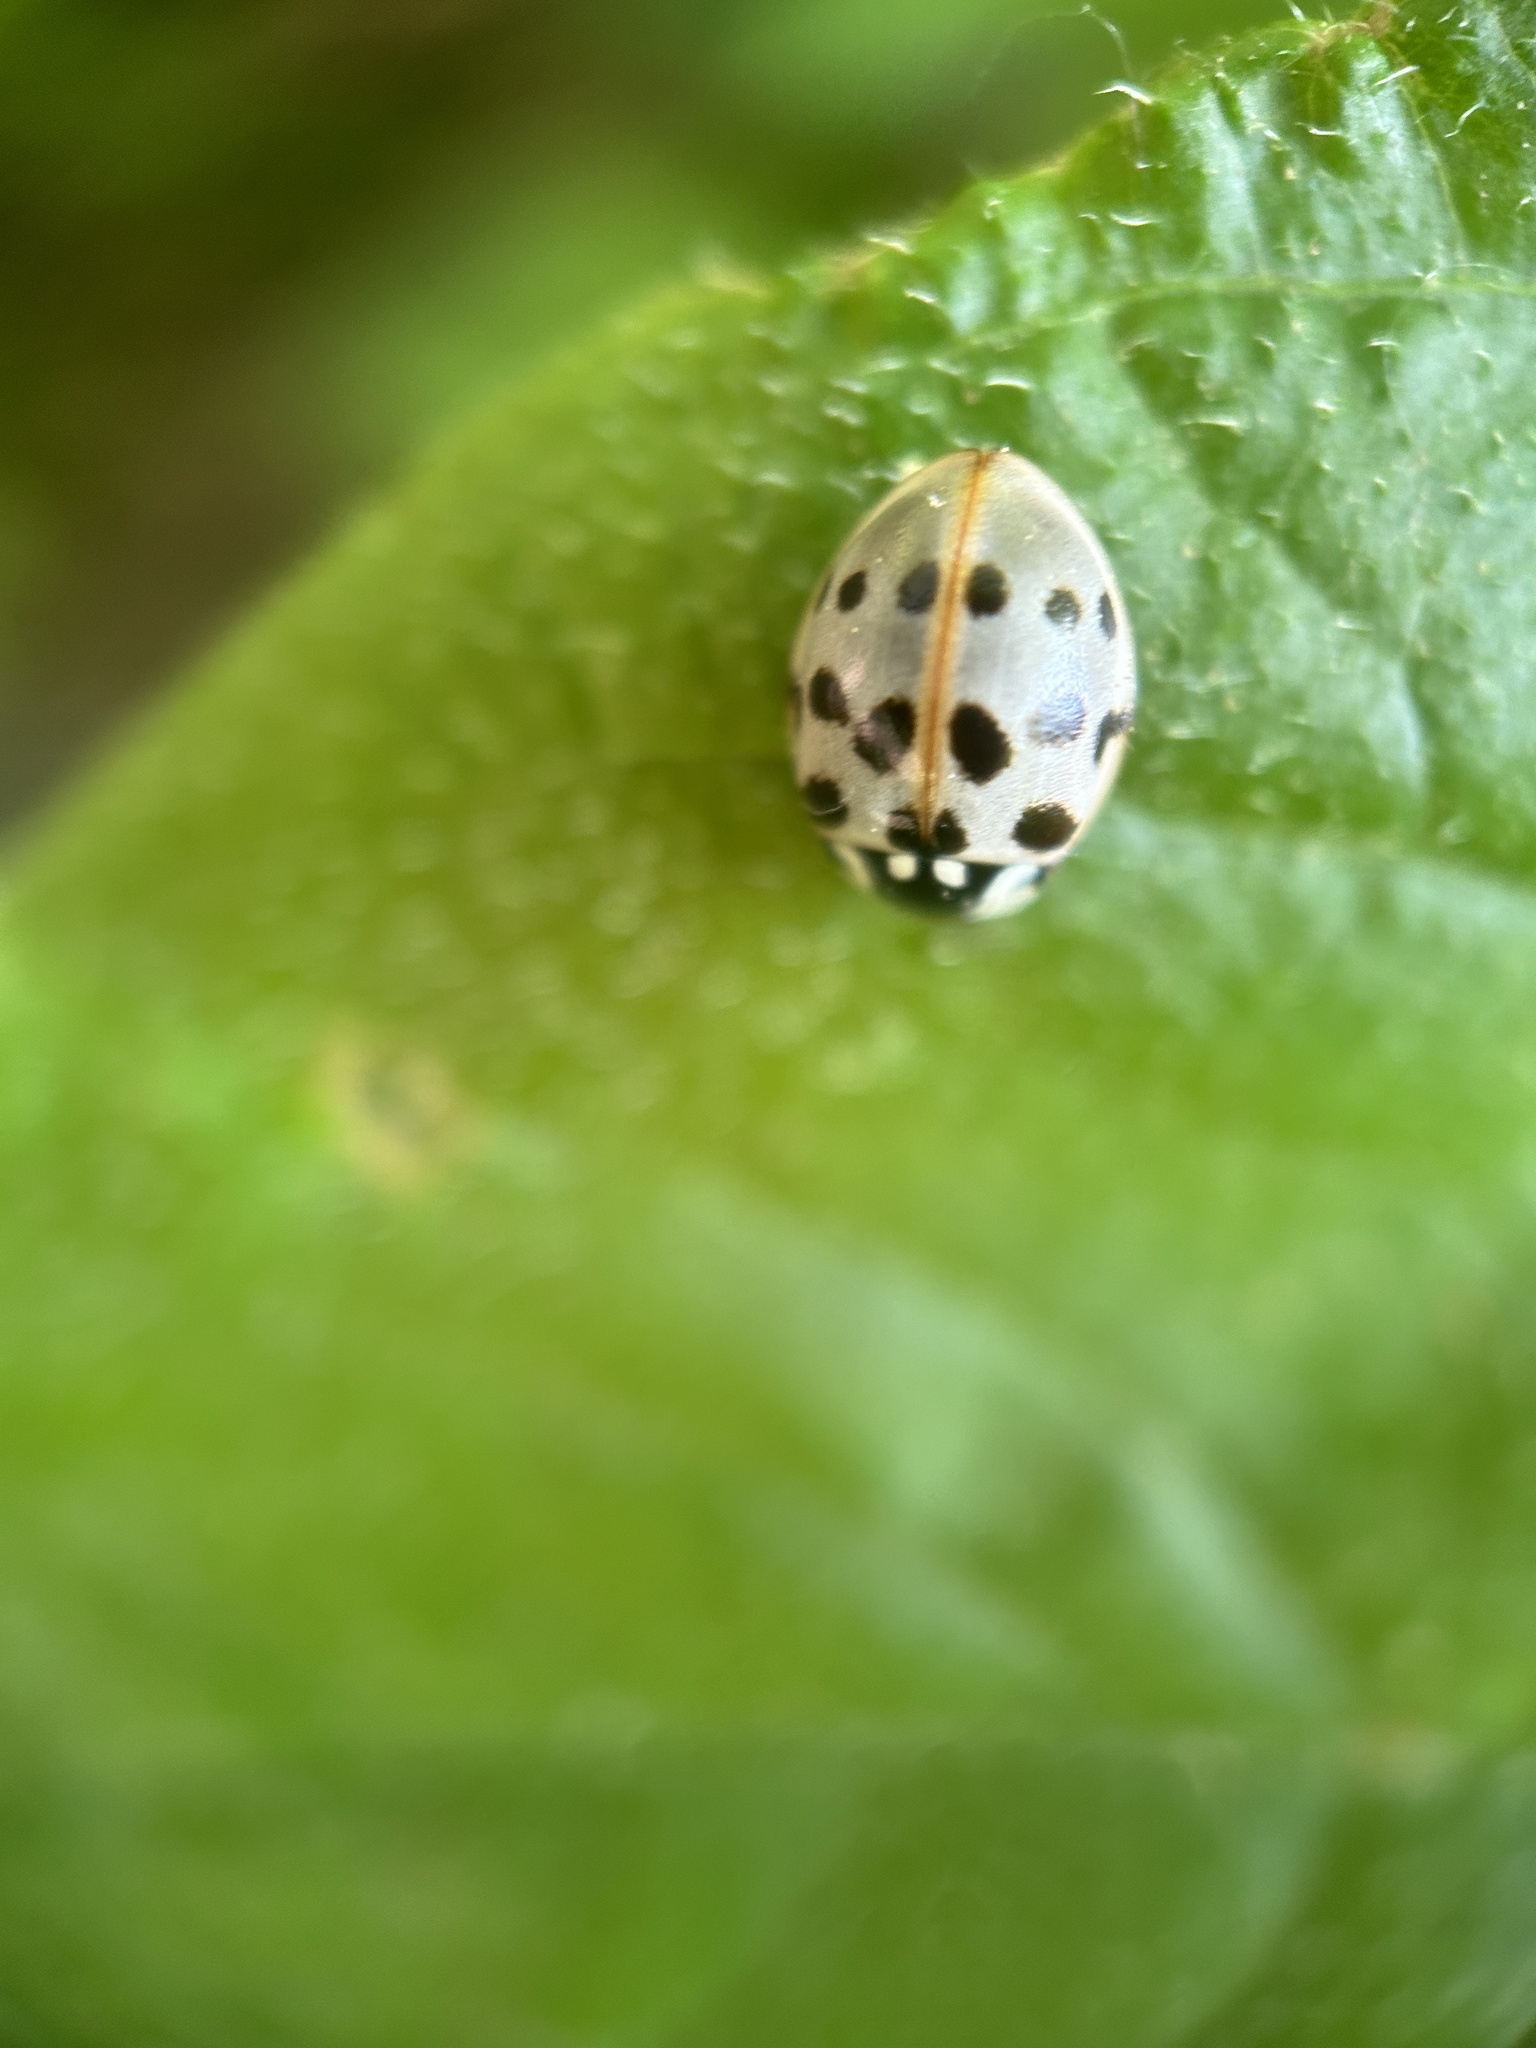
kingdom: Animalia
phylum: Arthropoda
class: Insecta
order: Coleoptera
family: Coccinellidae
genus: Anatis
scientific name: Anatis labiculata
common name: Fifteen-spotted lady beetle
